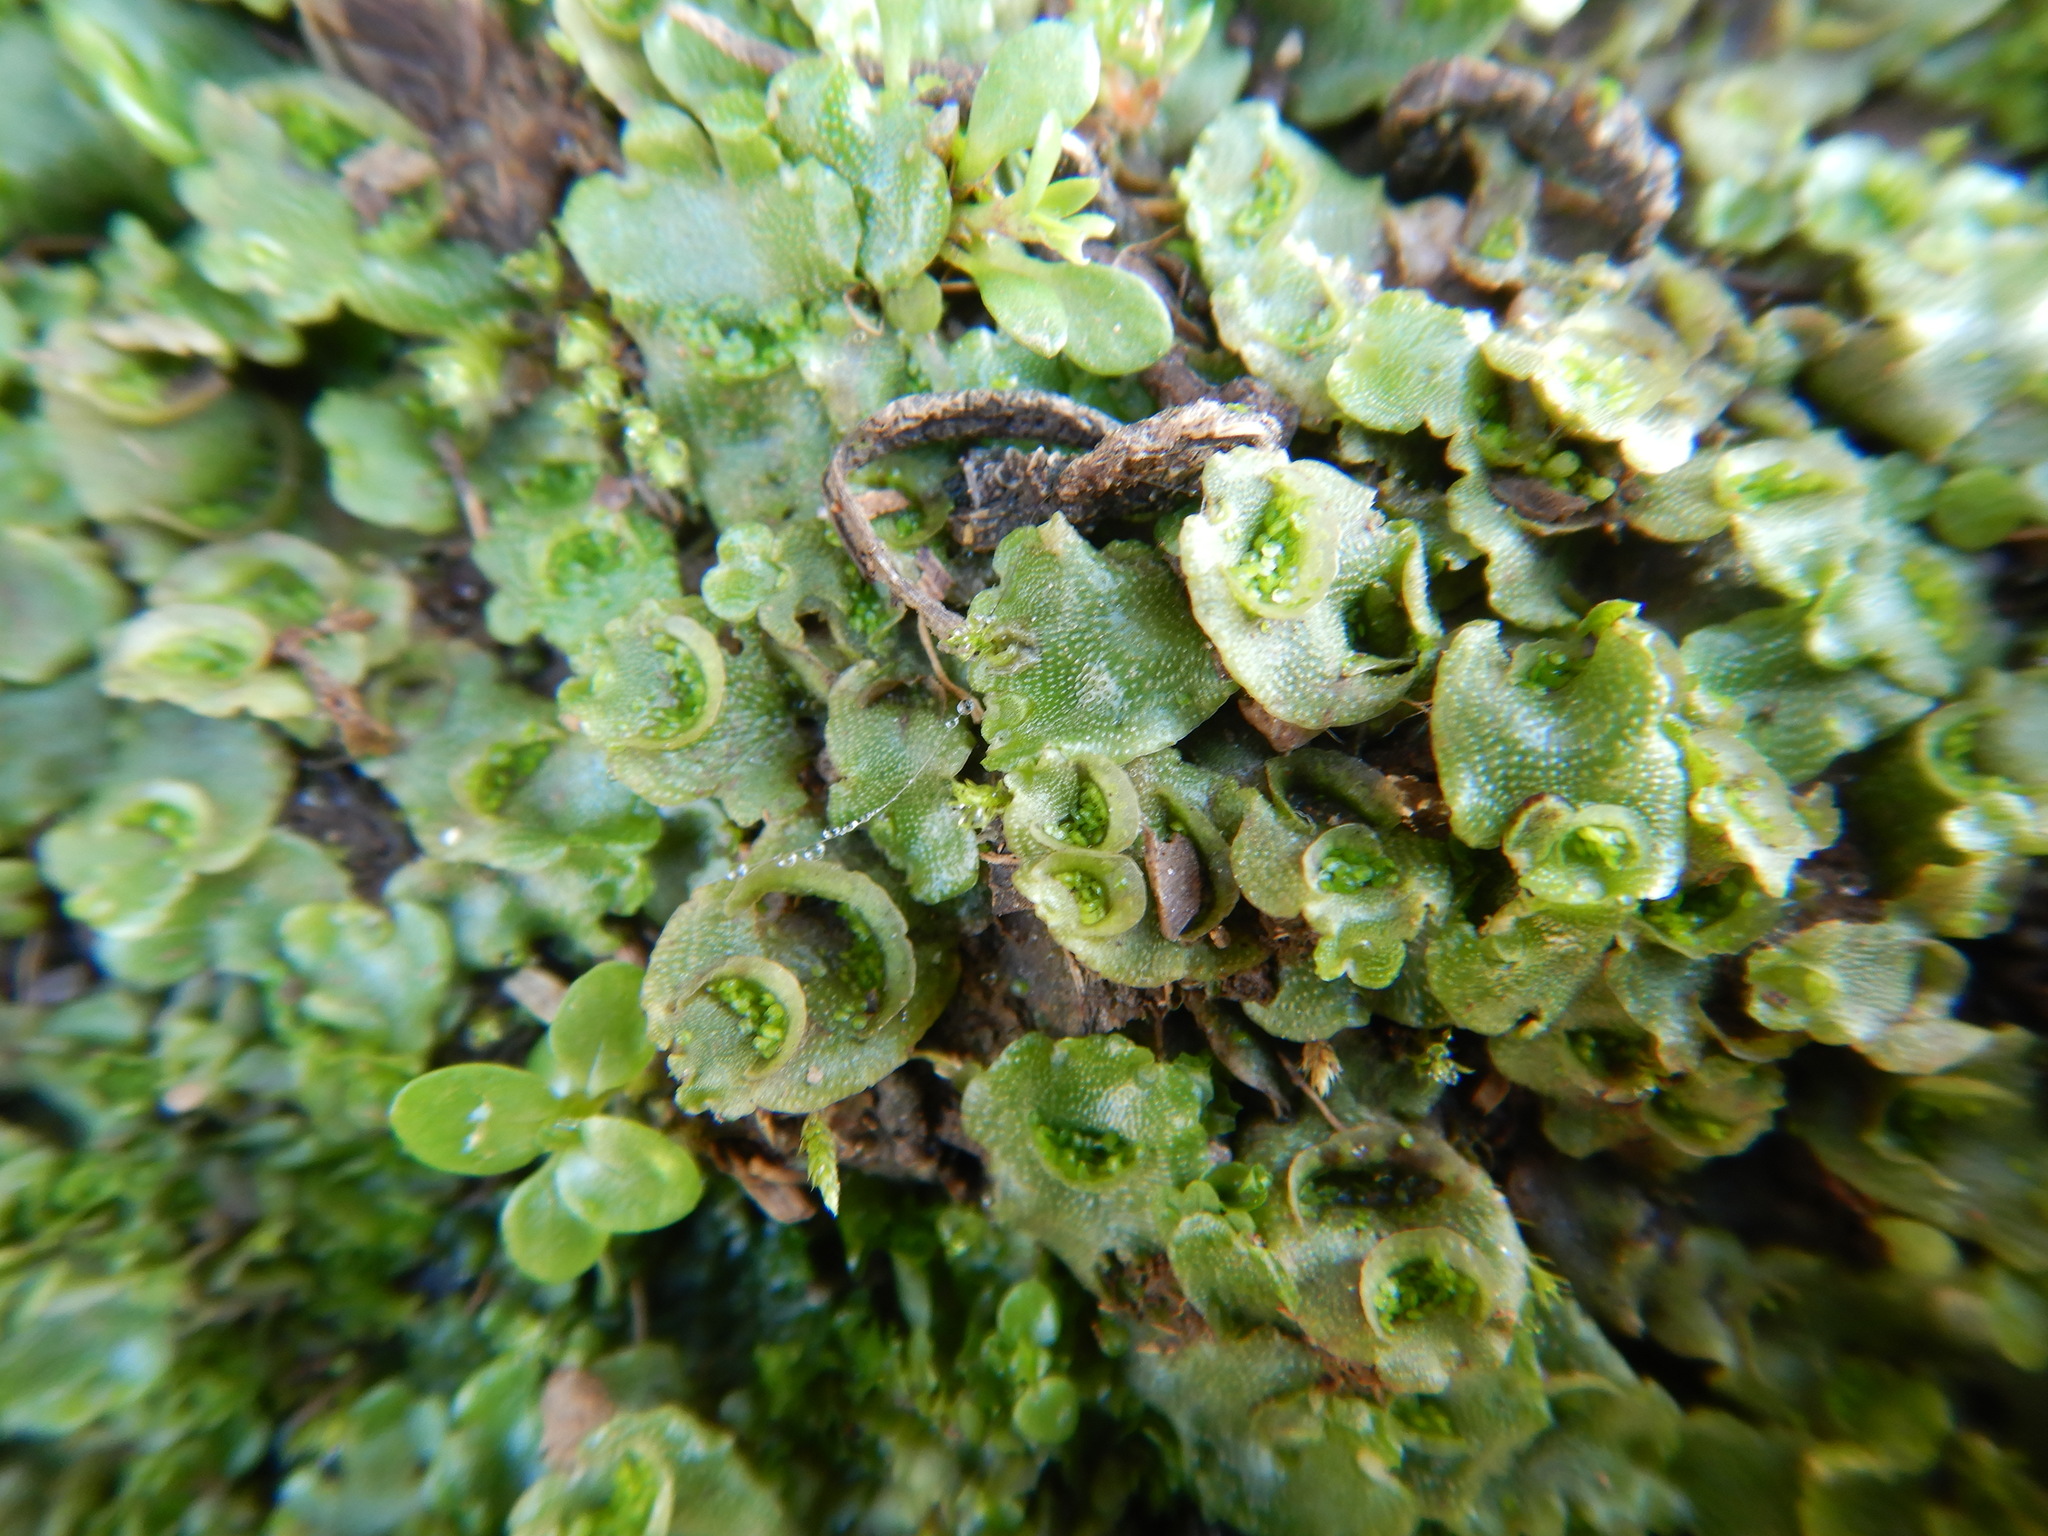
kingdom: Plantae
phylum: Marchantiophyta
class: Marchantiopsida
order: Lunulariales
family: Lunulariaceae
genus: Lunularia
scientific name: Lunularia cruciata
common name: Crescent-cup liverwort
